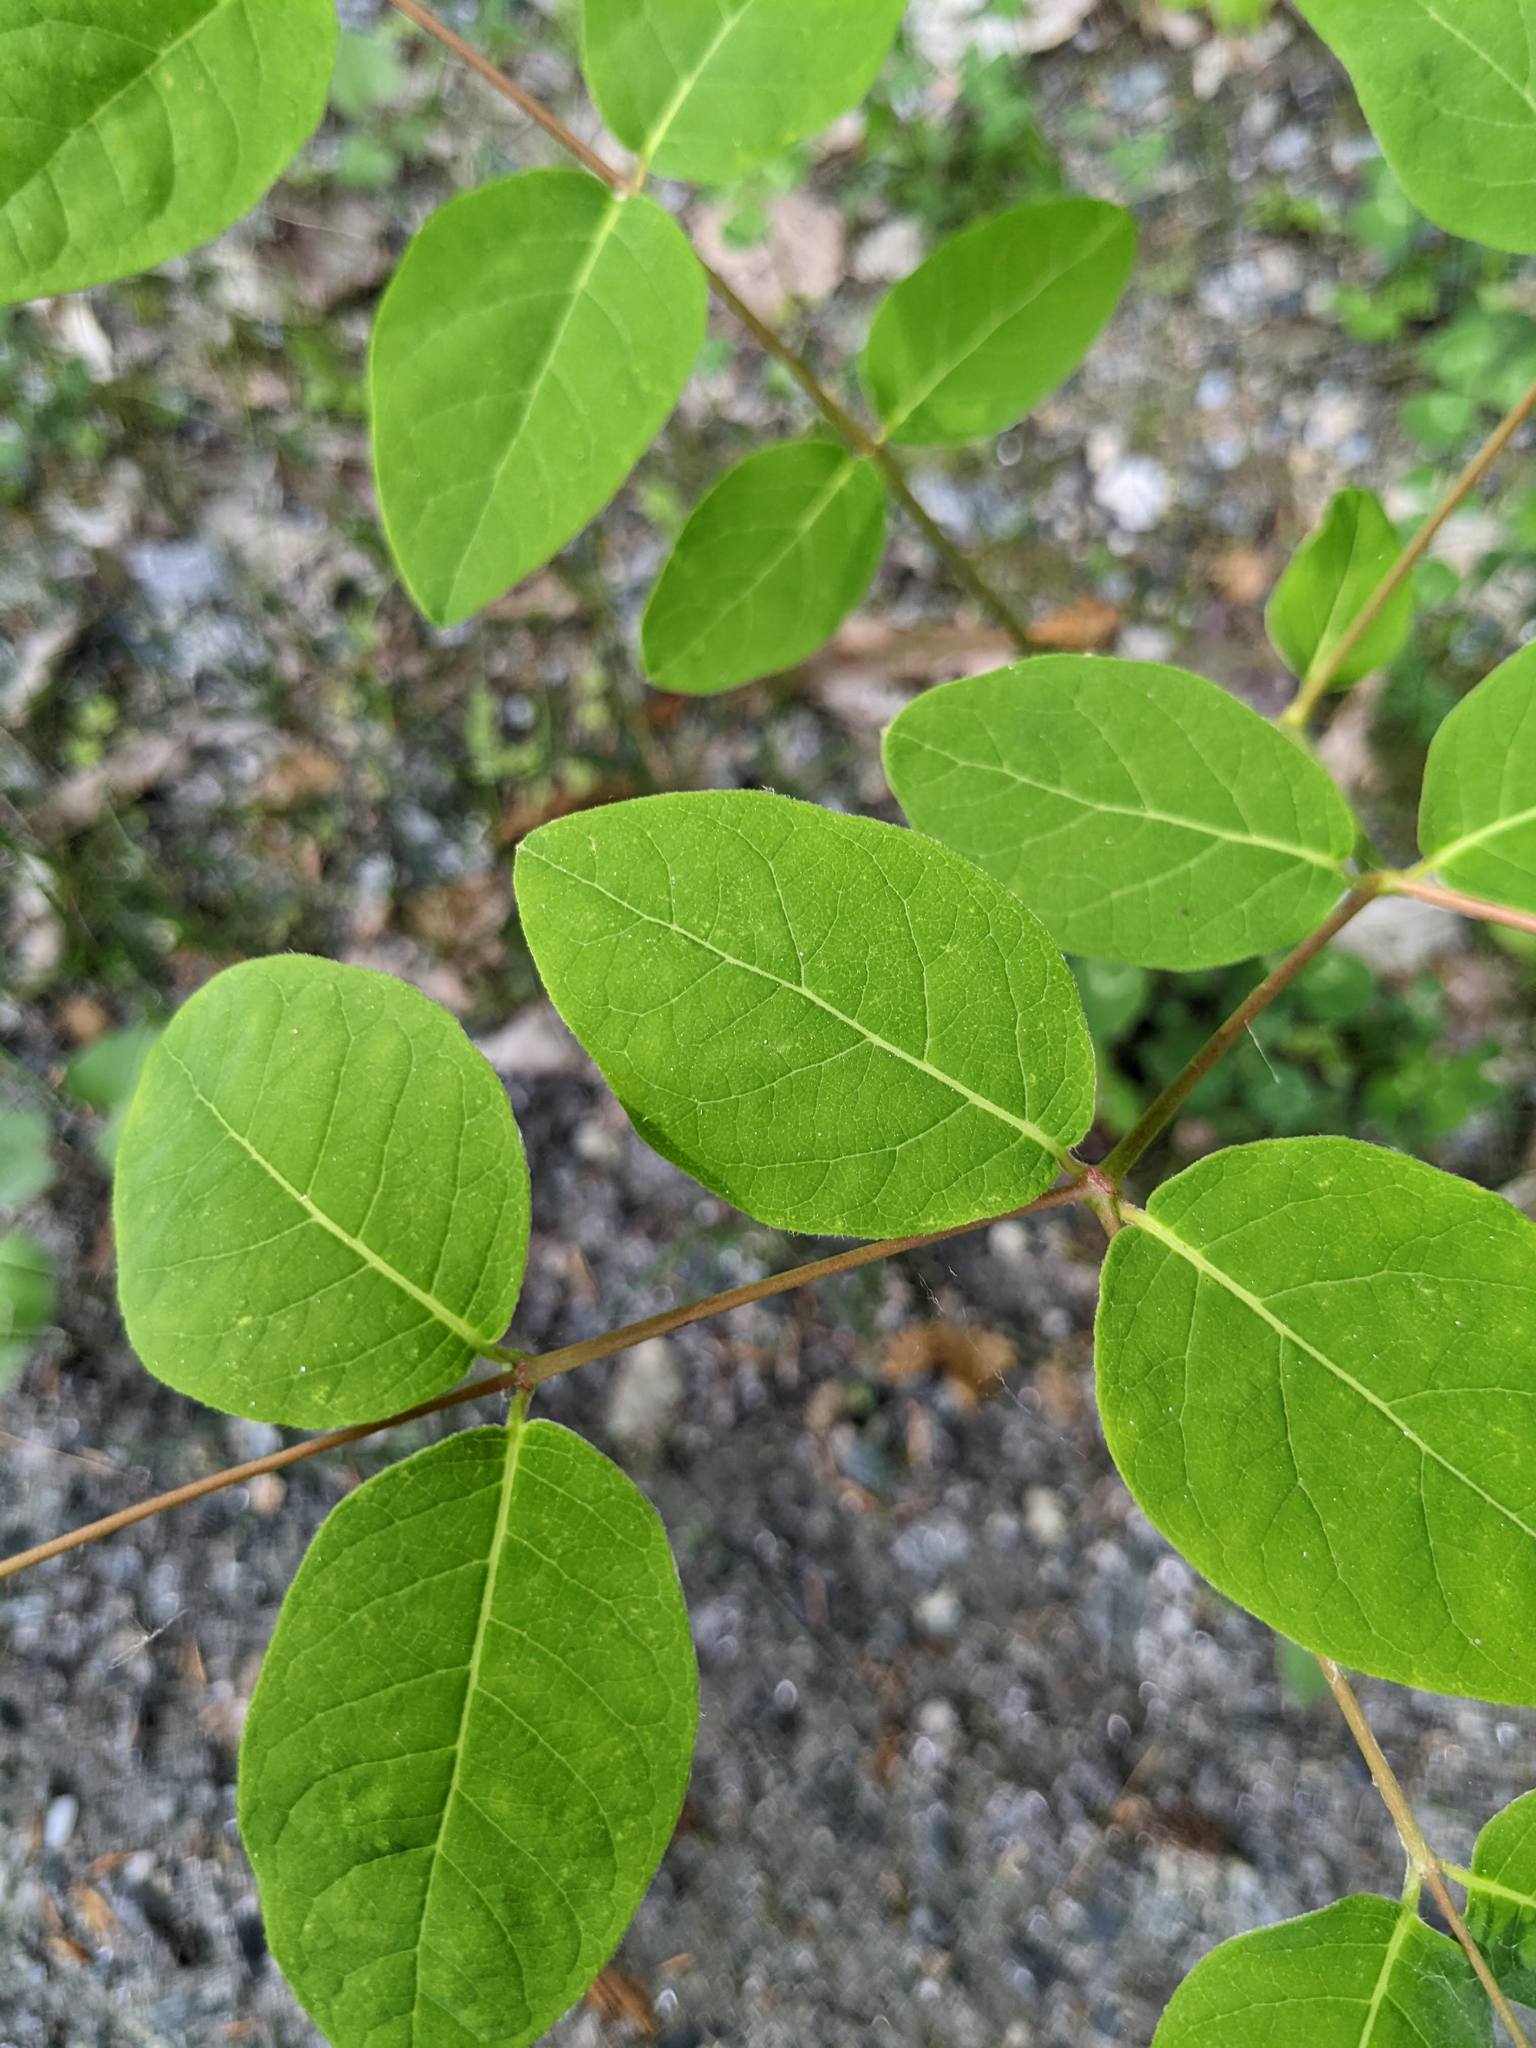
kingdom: Plantae
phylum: Tracheophyta
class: Magnoliopsida
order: Gentianales
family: Apocynaceae
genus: Apocynum
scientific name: Apocynum androsaemifolium
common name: Spreading dogbane
